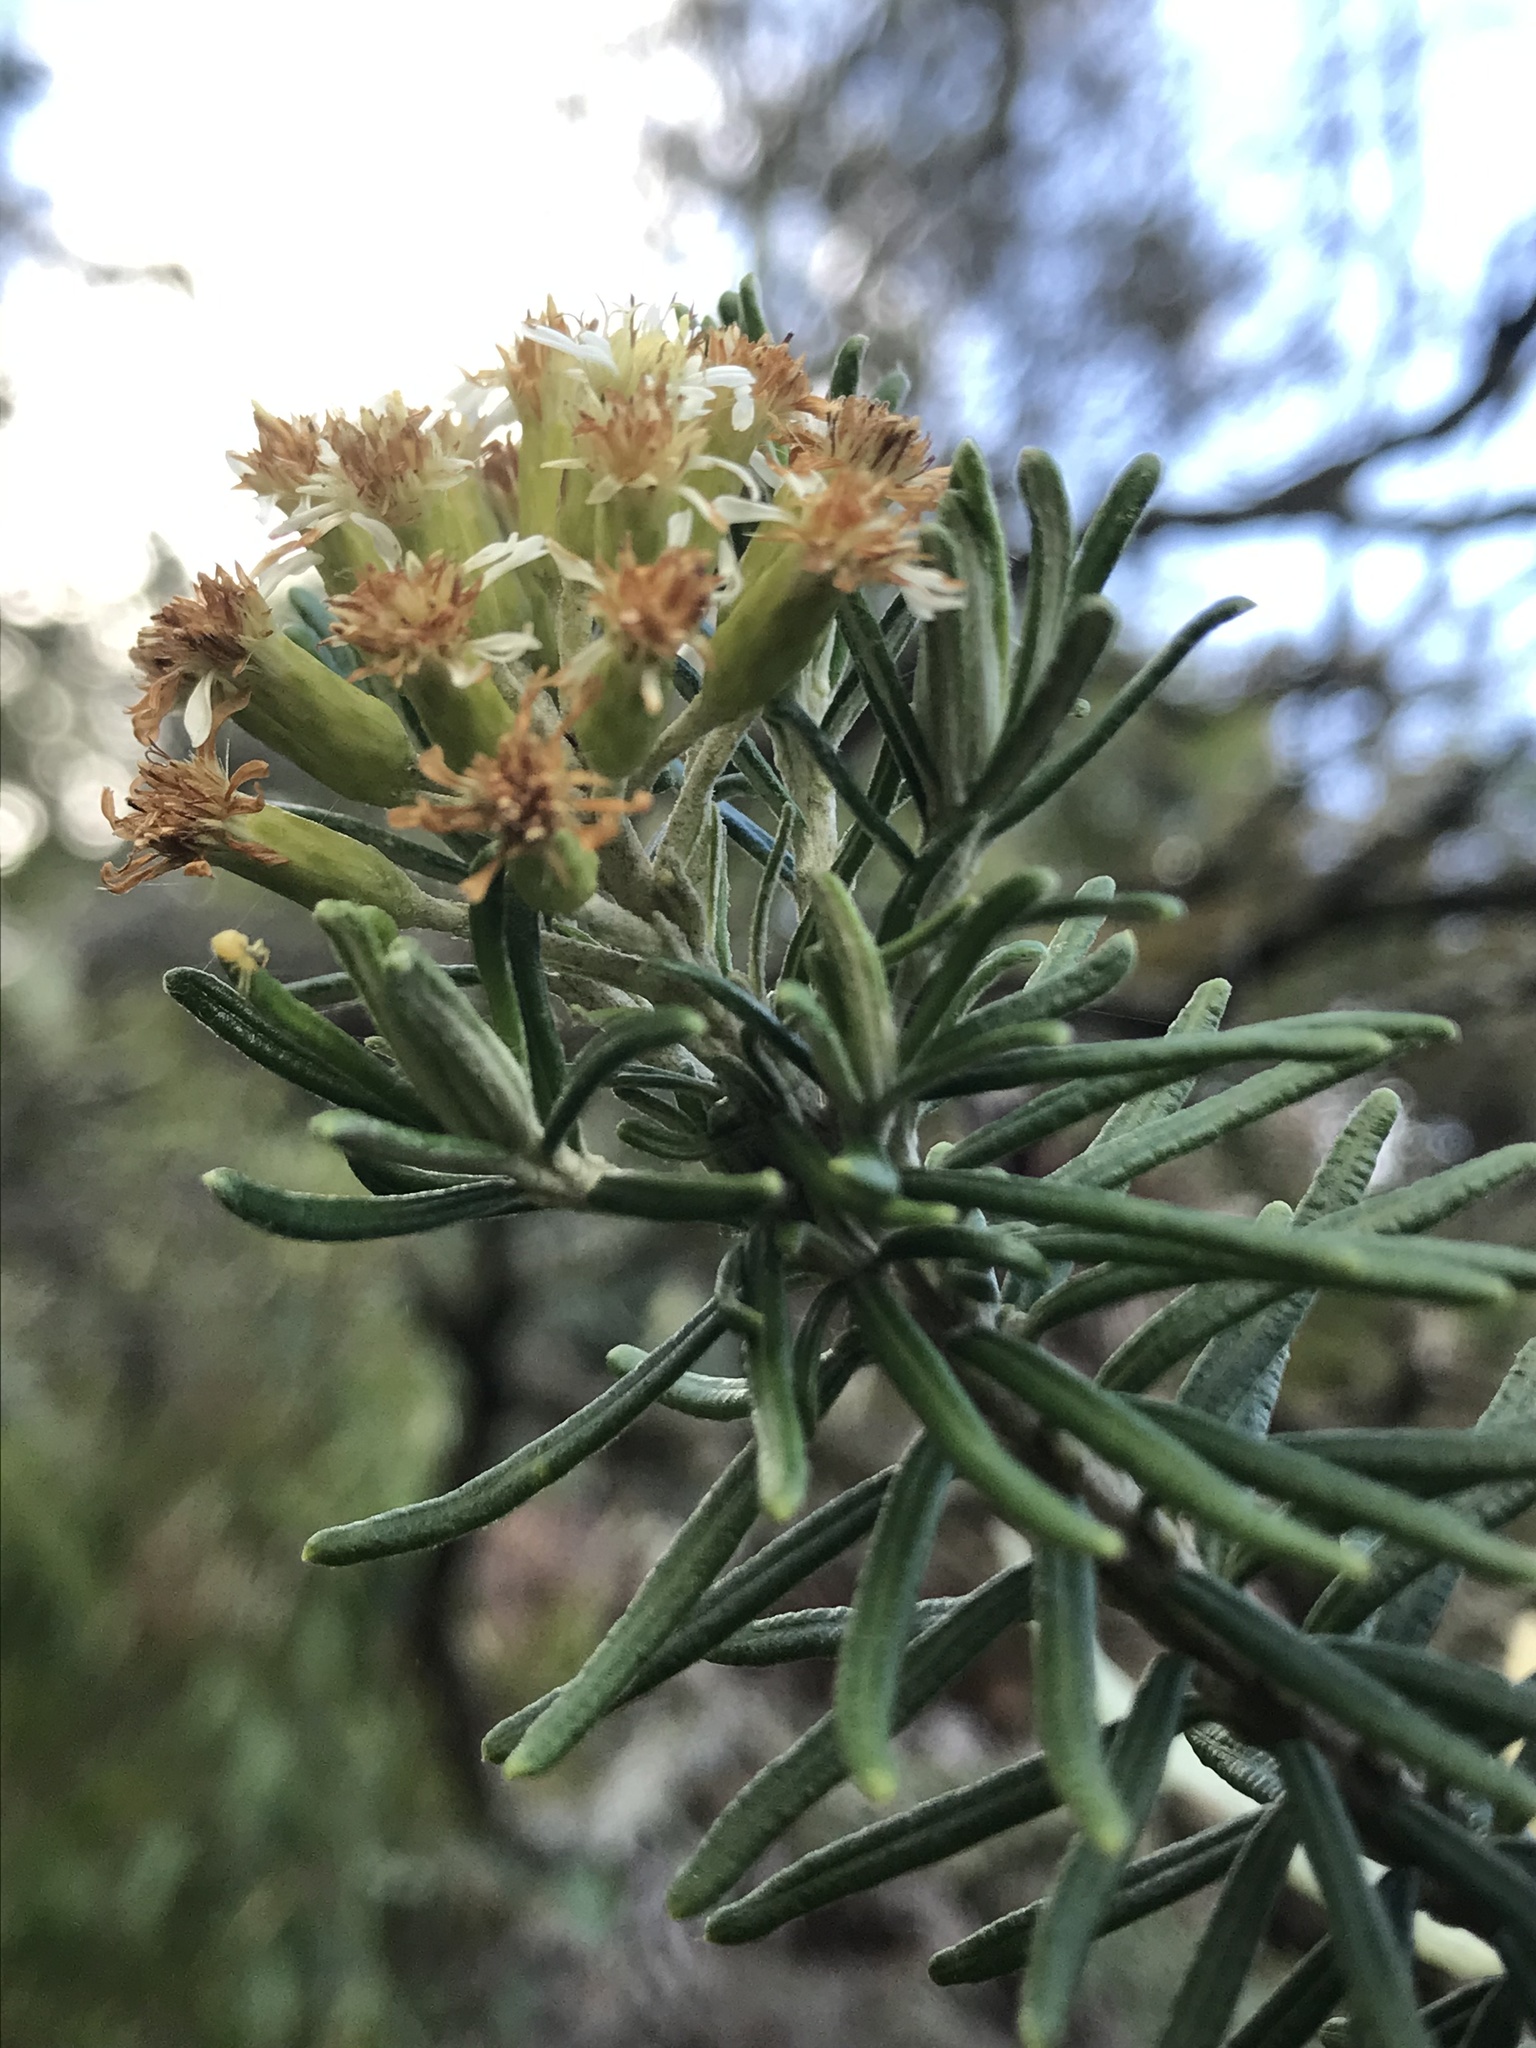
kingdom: Plantae
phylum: Tracheophyta
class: Magnoliopsida
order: Asterales
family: Asteraceae
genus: Linochilus
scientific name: Linochilus rosmarinifolius
